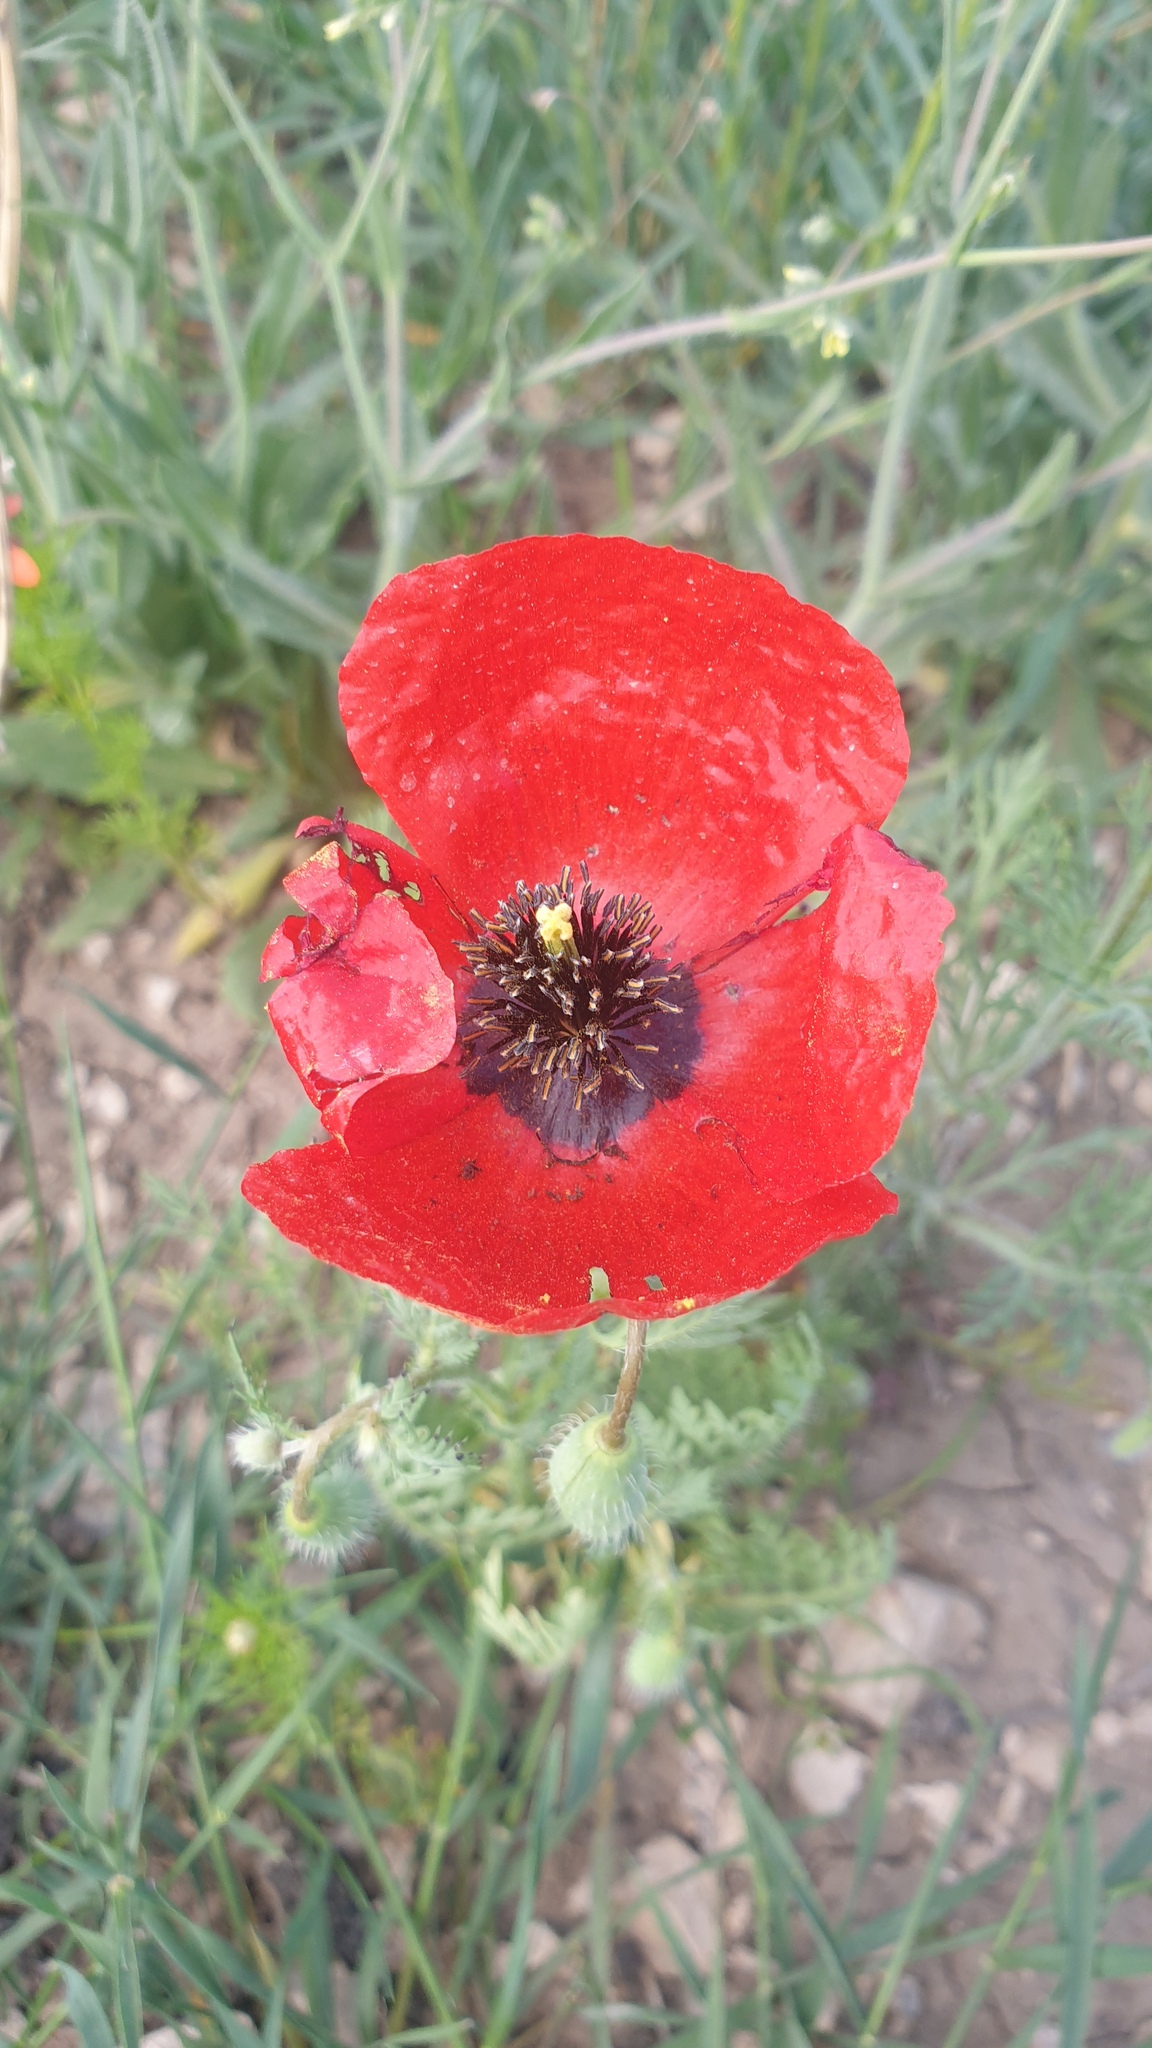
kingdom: Plantae
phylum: Tracheophyta
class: Magnoliopsida
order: Ranunculales
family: Papaveraceae
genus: Roemeria
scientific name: Roemeria refracta
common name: Spotted asian poppy
